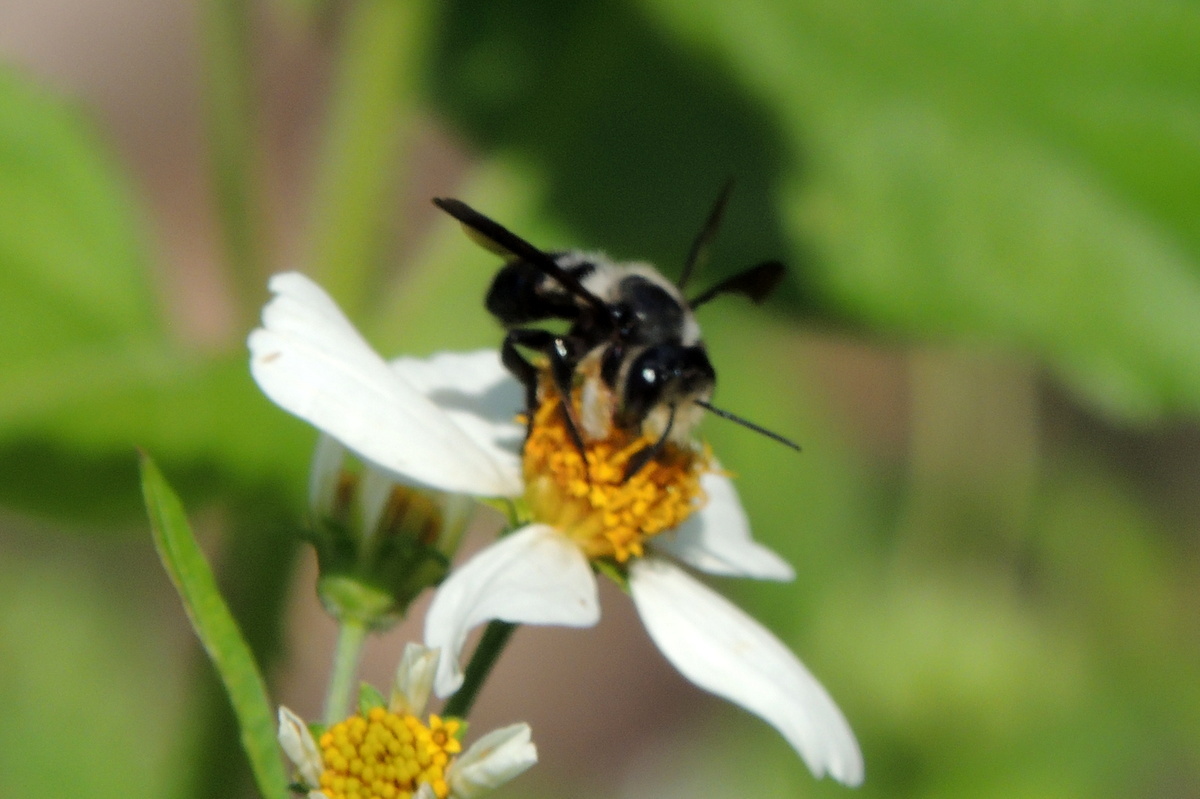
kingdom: Animalia
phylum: Arthropoda
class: Insecta
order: Hymenoptera
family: Megachilidae
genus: Megachile
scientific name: Megachile xylocopoides
